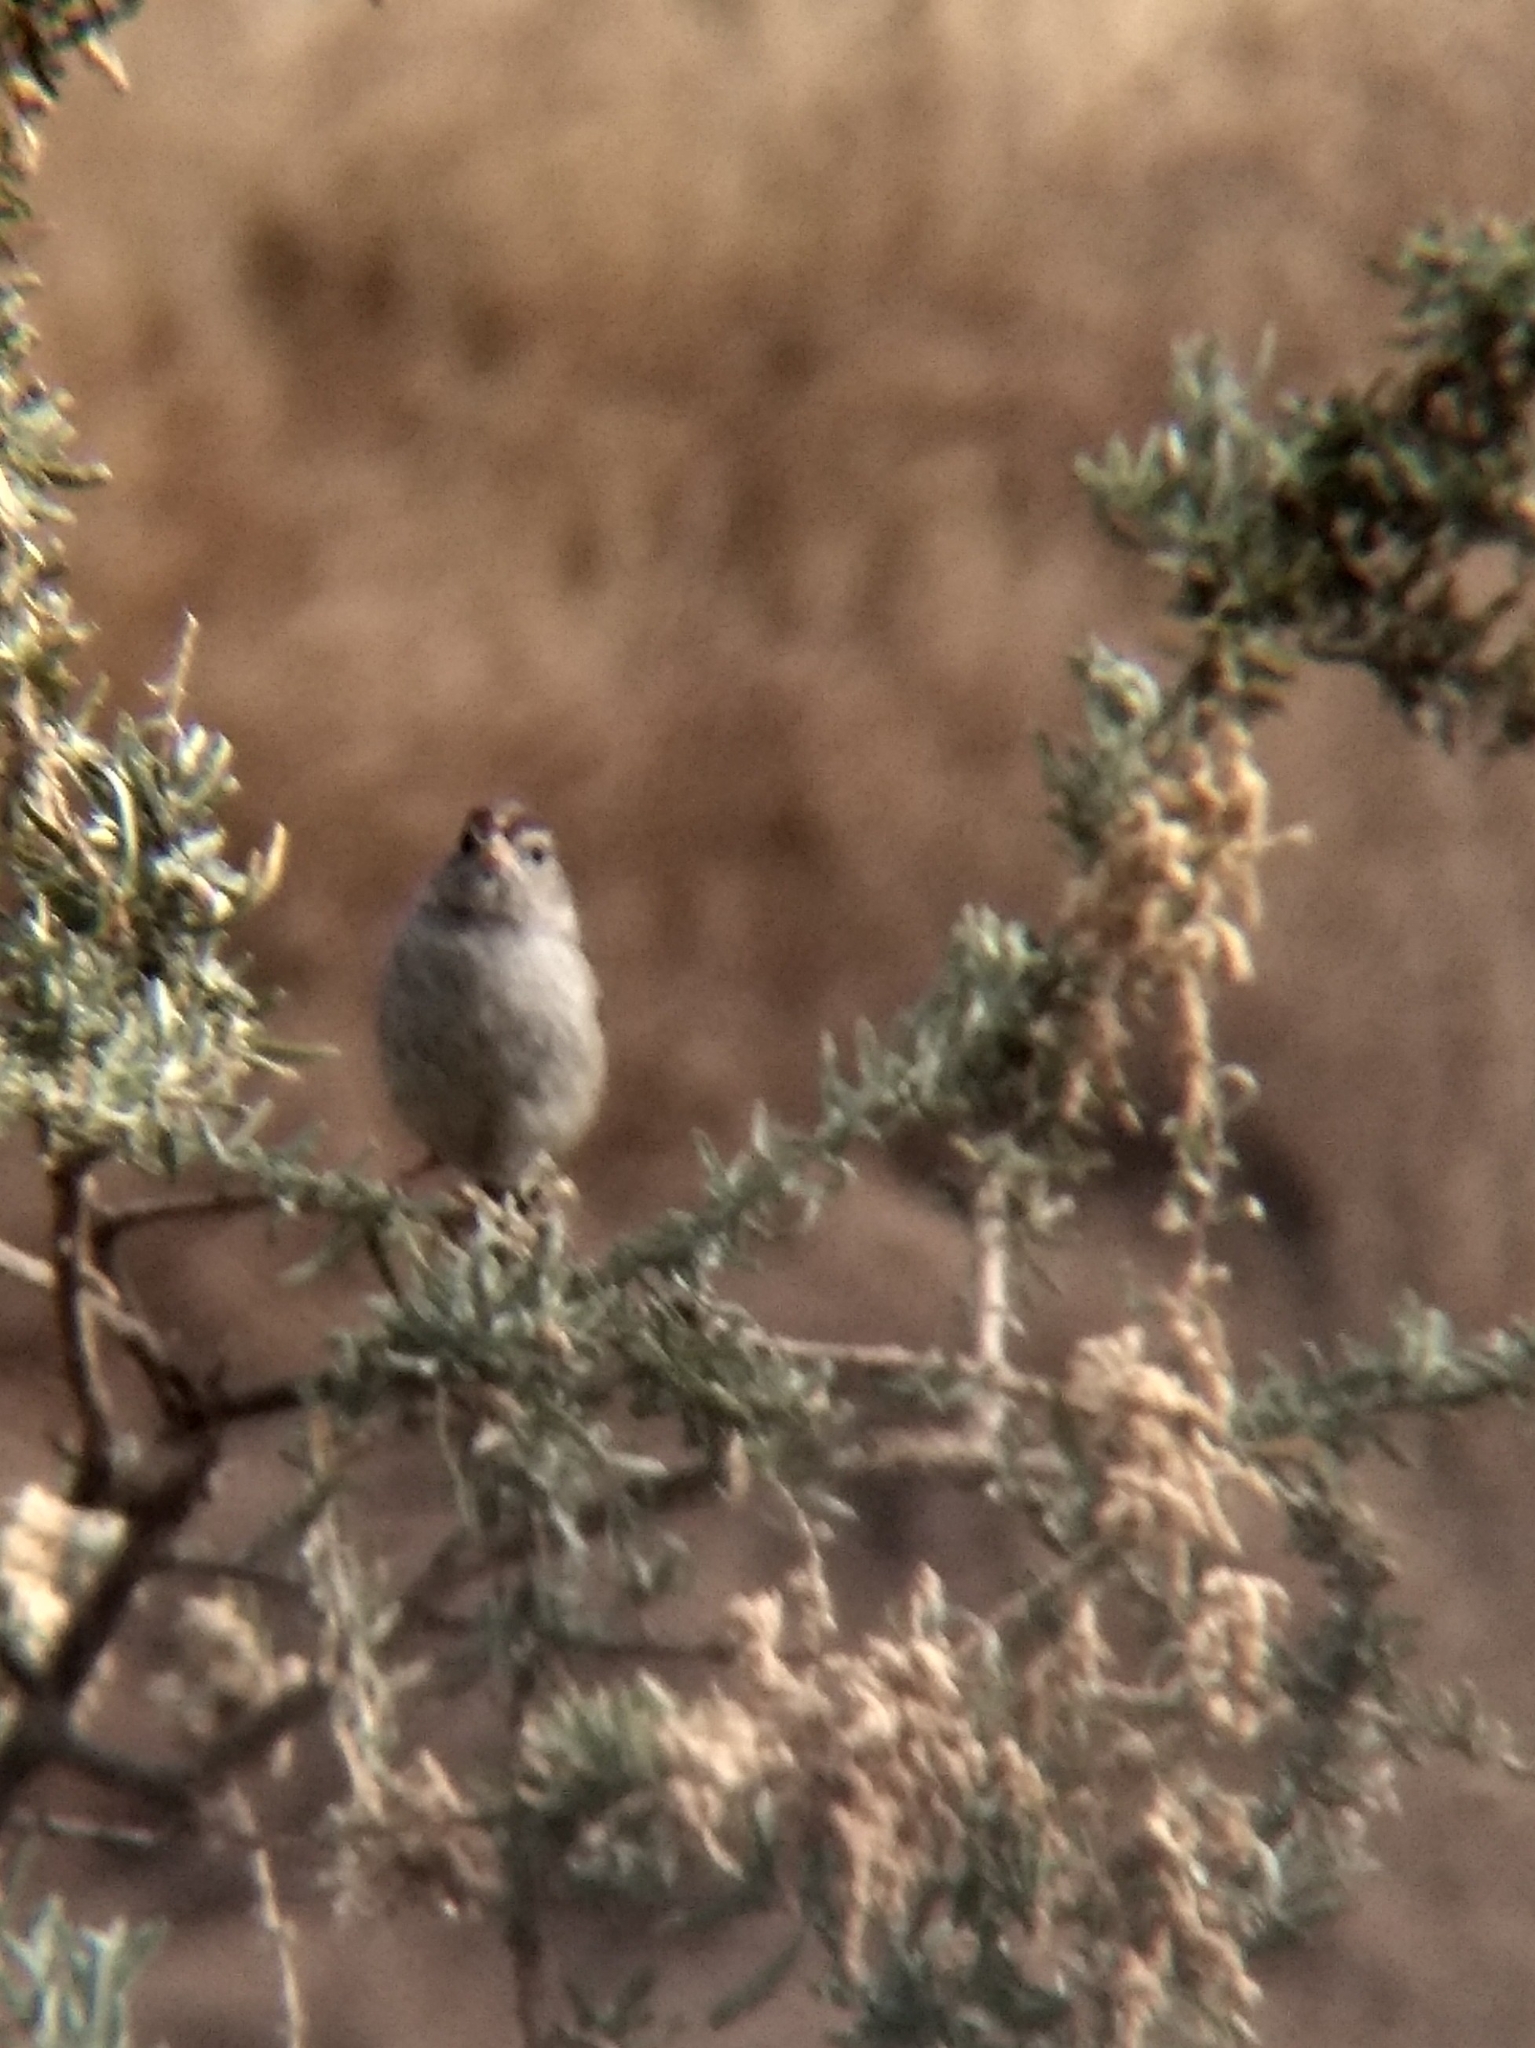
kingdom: Animalia
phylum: Chordata
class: Aves
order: Passeriformes
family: Passerellidae
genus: Zonotrichia
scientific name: Zonotrichia leucophrys
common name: White-crowned sparrow
